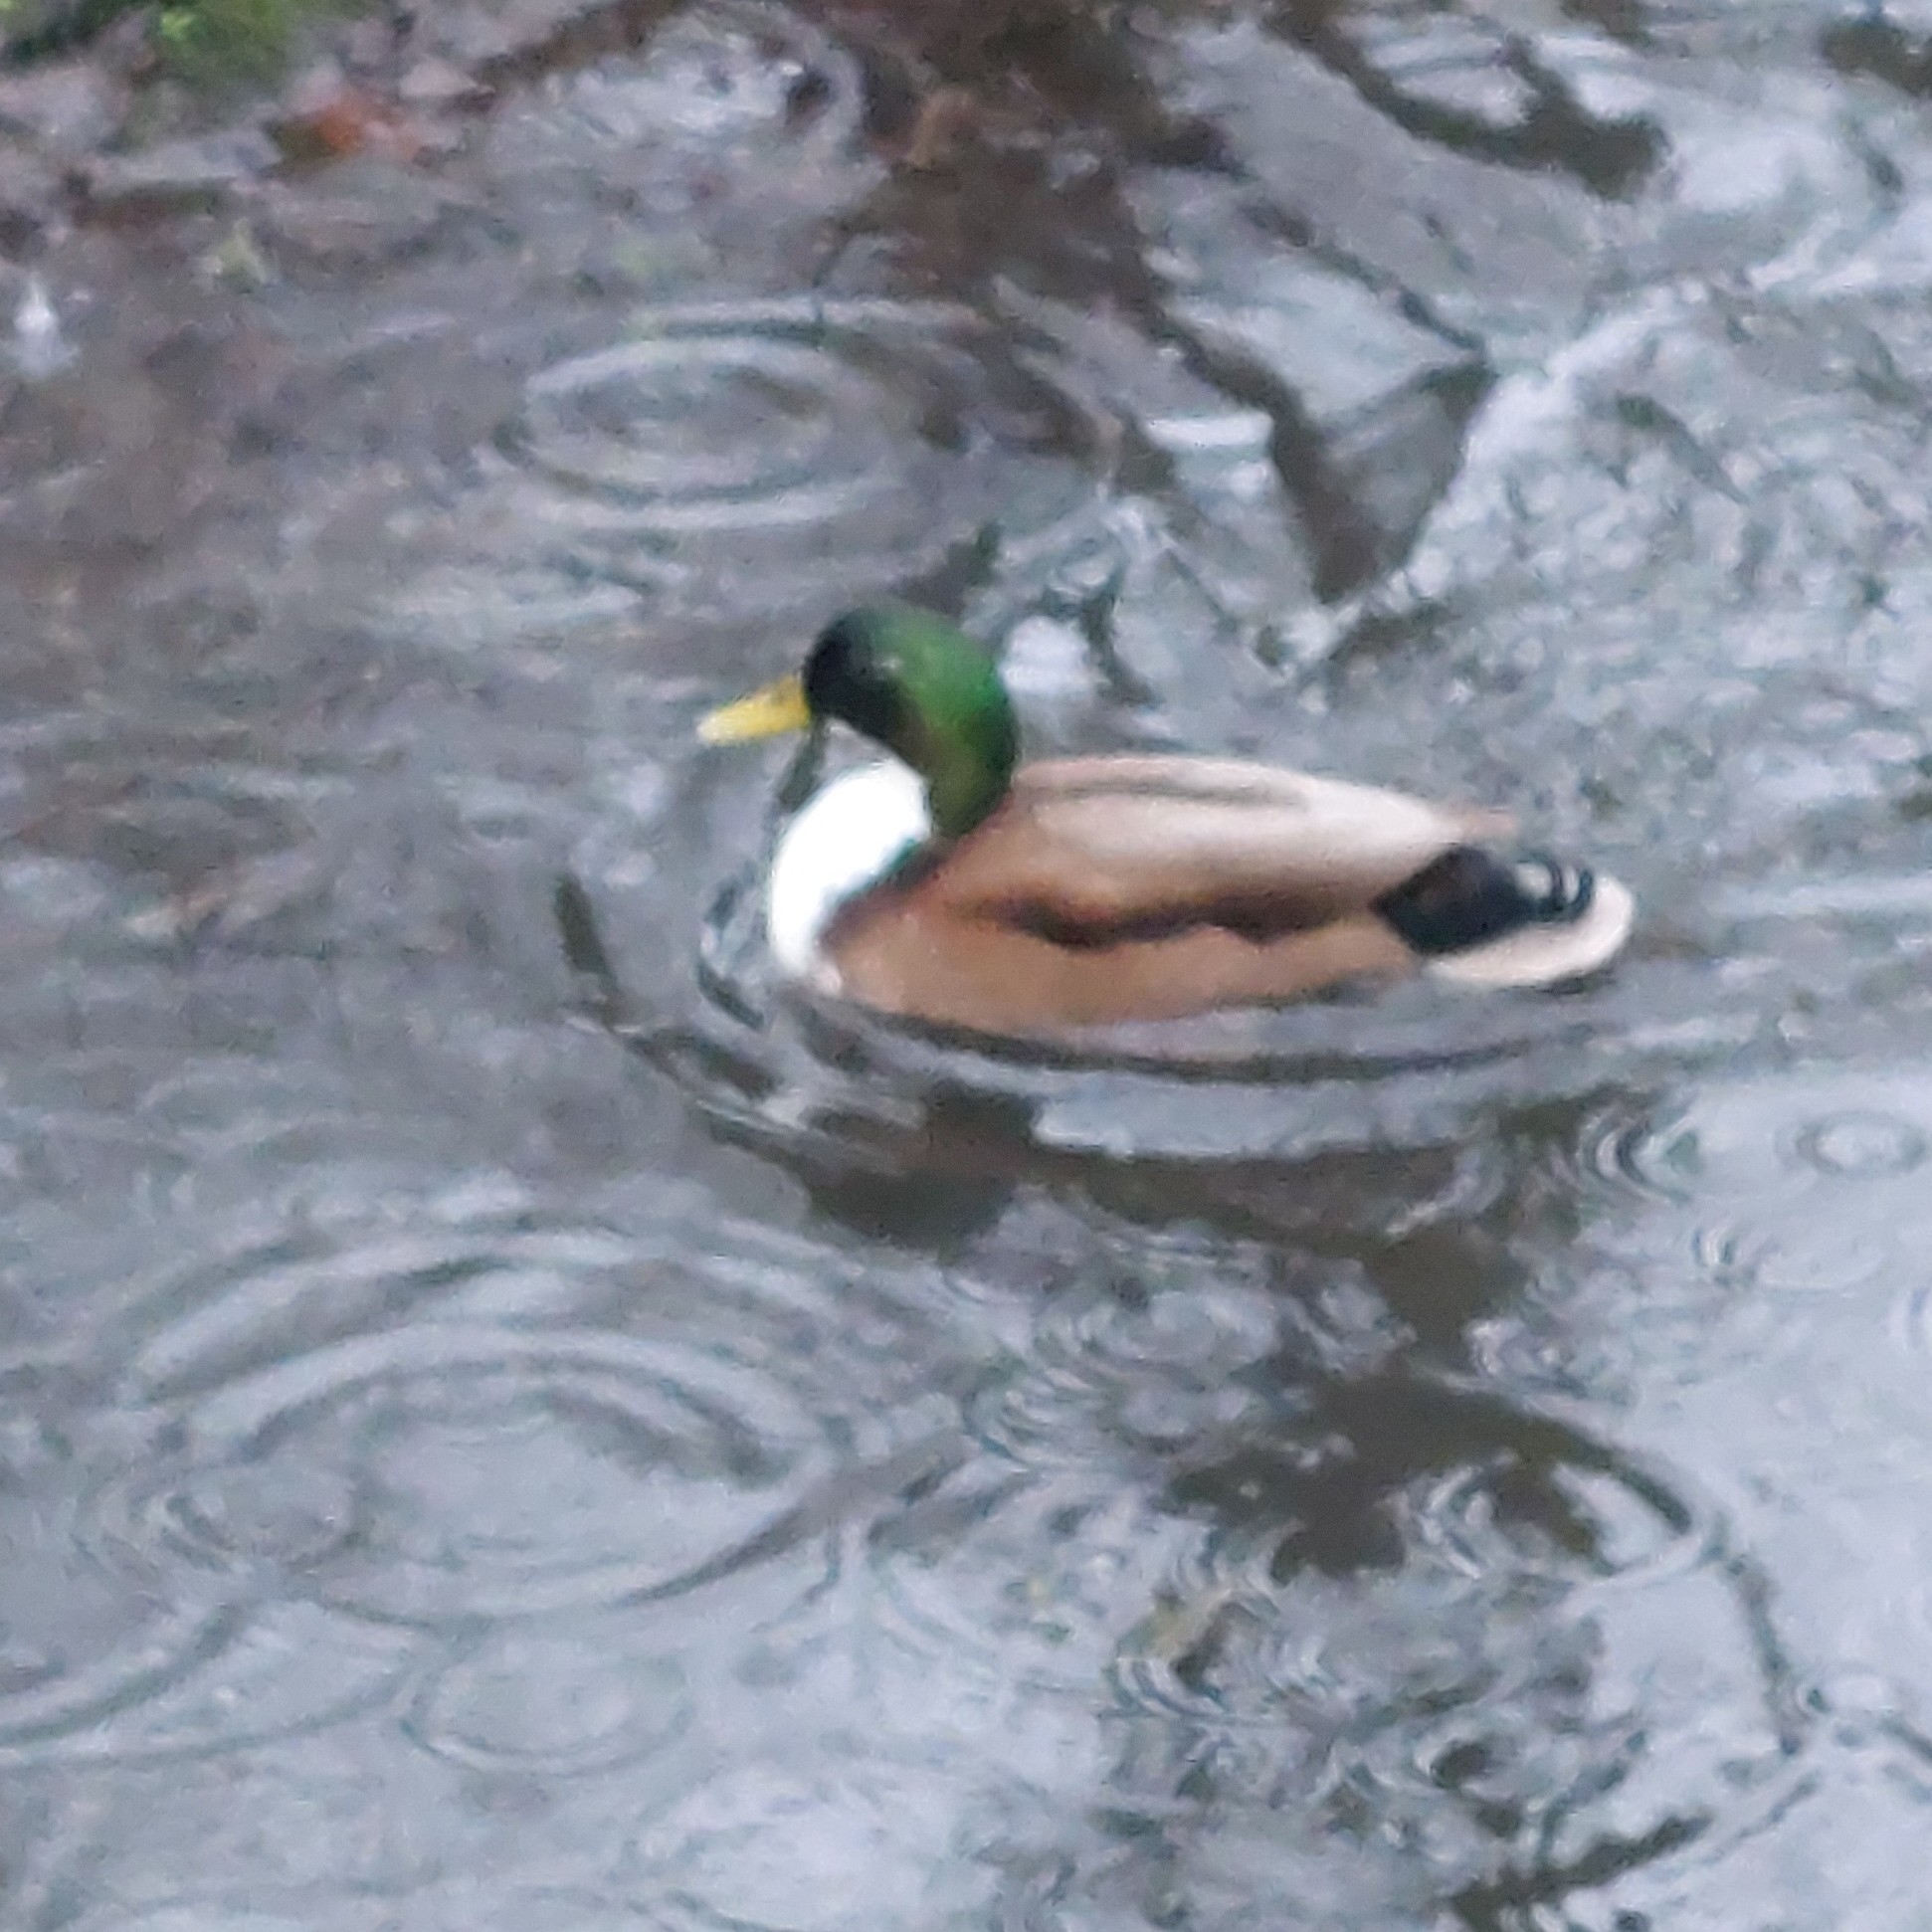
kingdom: Animalia
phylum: Chordata
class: Aves
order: Anseriformes
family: Anatidae
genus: Anas
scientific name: Anas platyrhynchos
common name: Mallard
